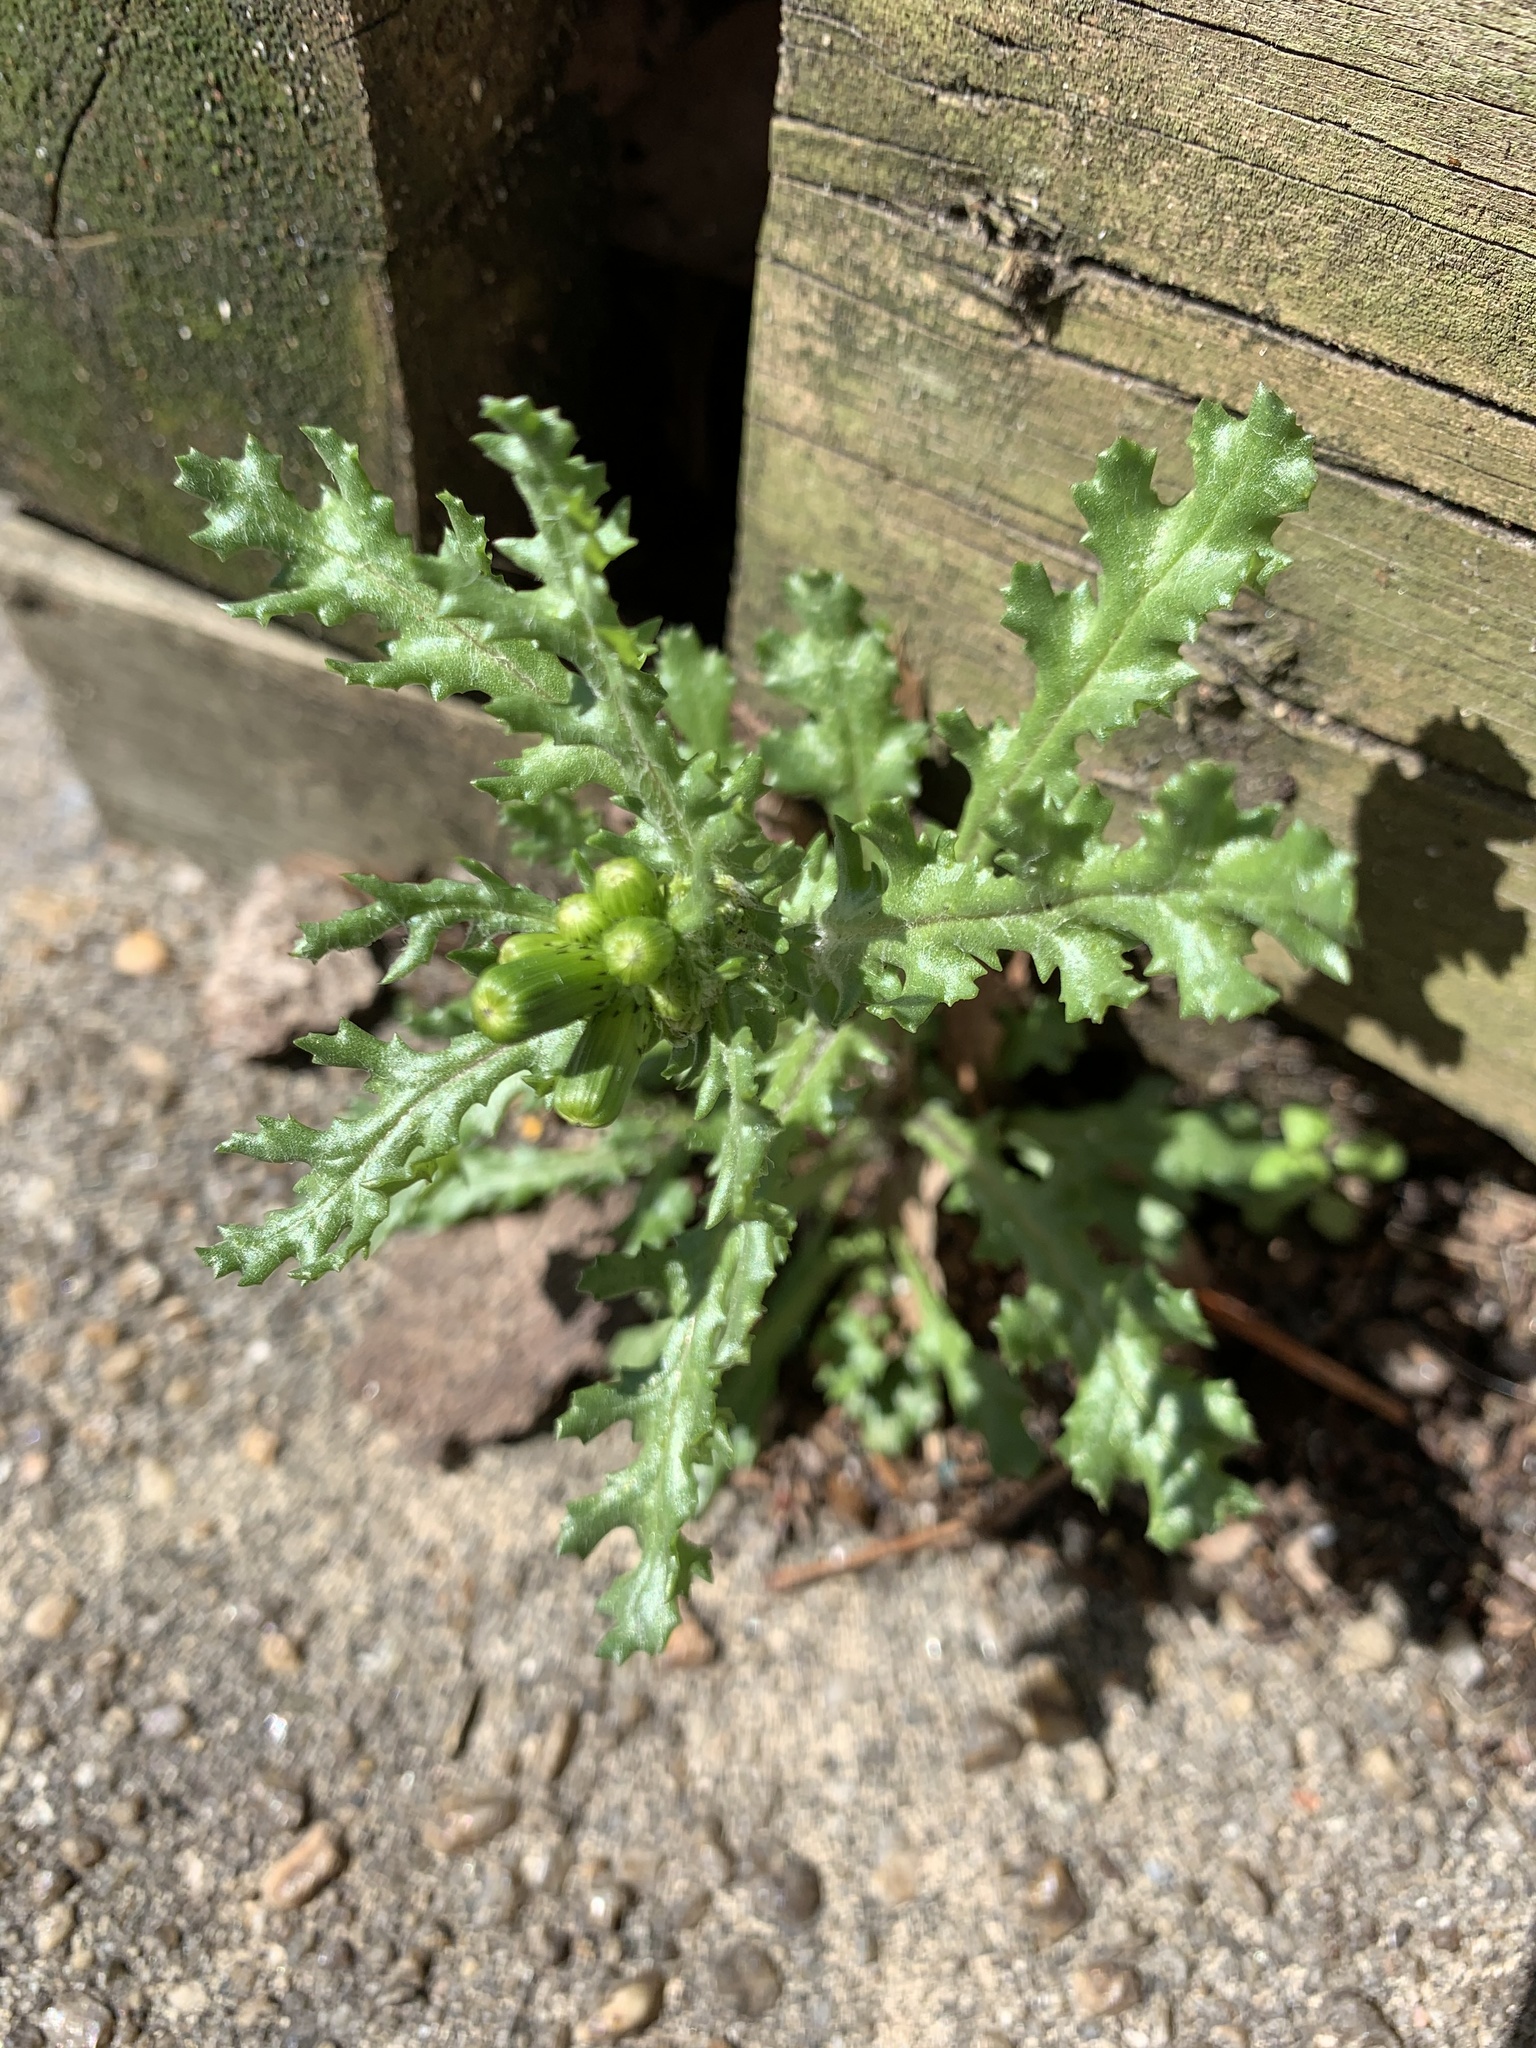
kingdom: Plantae
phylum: Tracheophyta
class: Magnoliopsida
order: Asterales
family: Asteraceae
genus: Senecio
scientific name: Senecio vulgaris
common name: Old-man-in-the-spring
